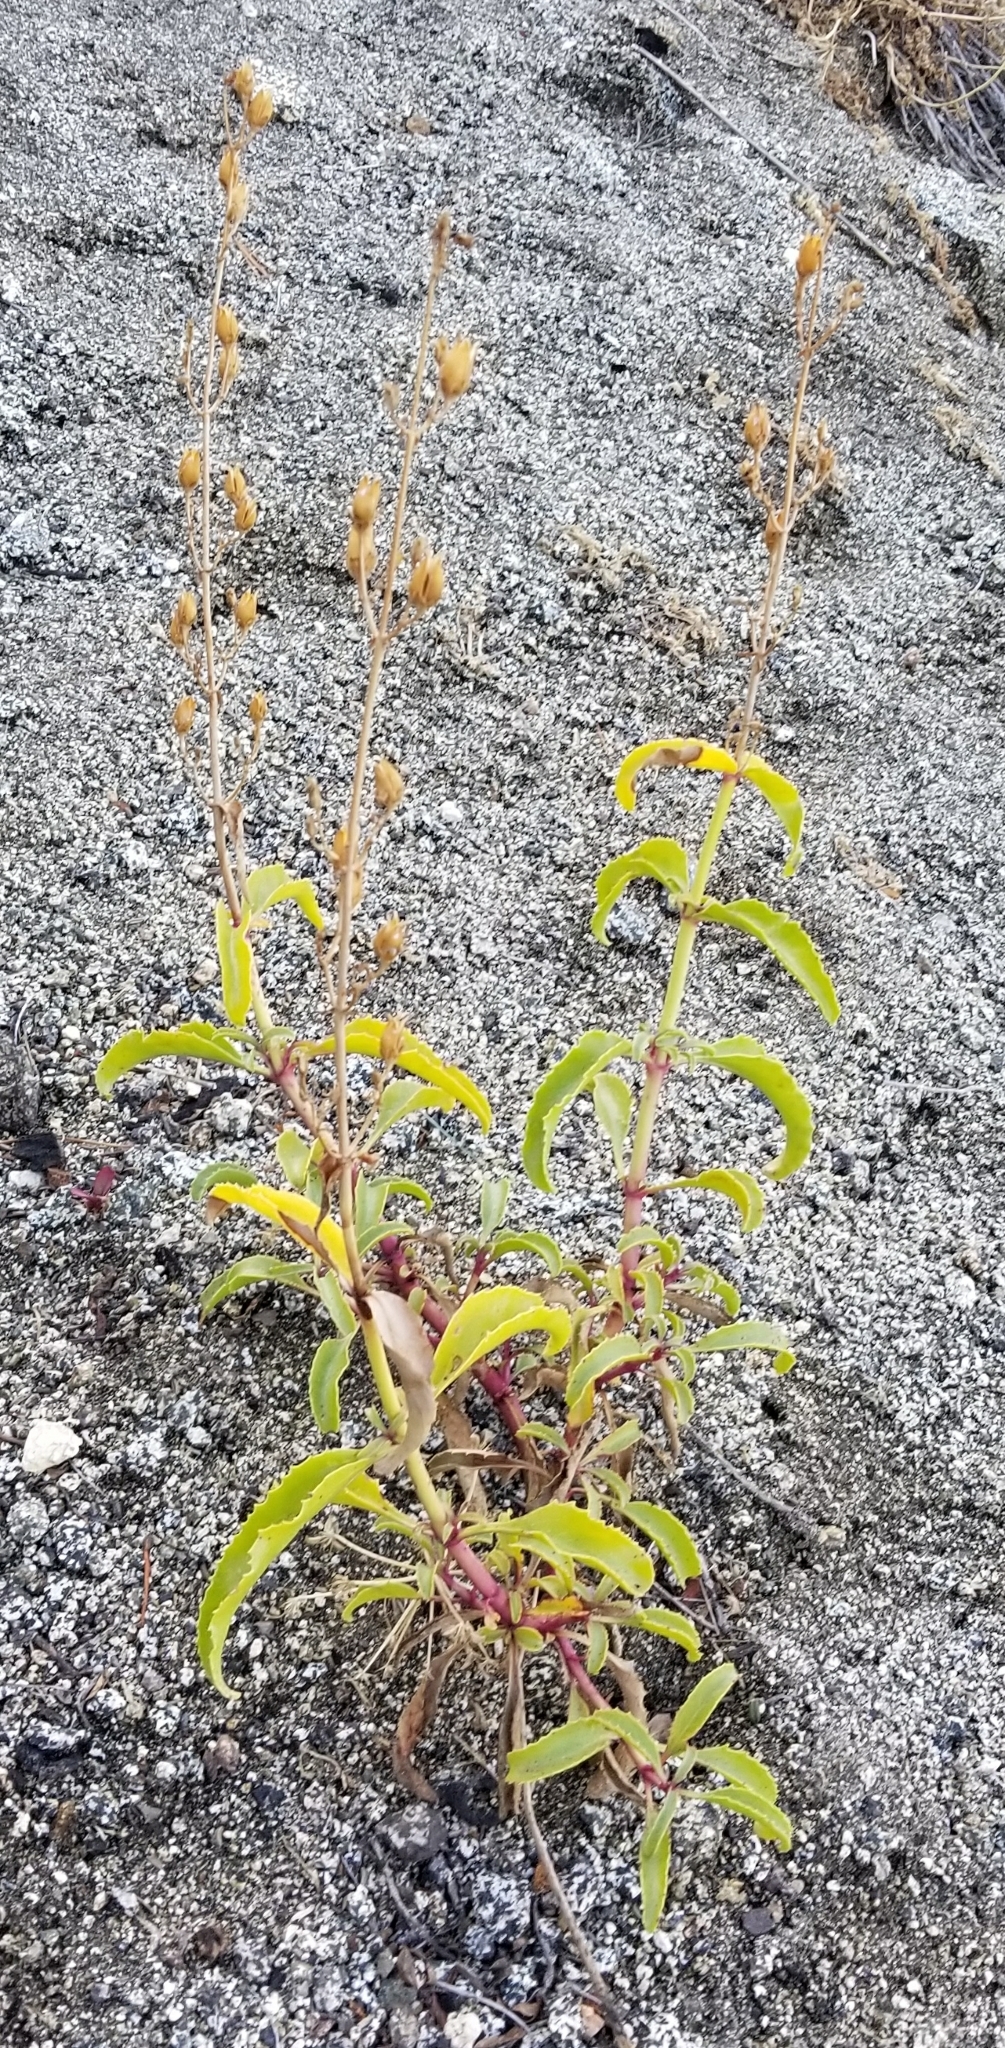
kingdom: Plantae
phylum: Tracheophyta
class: Magnoliopsida
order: Lamiales
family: Plantaginaceae
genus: Penstemon
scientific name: Penstemon spectabilis
